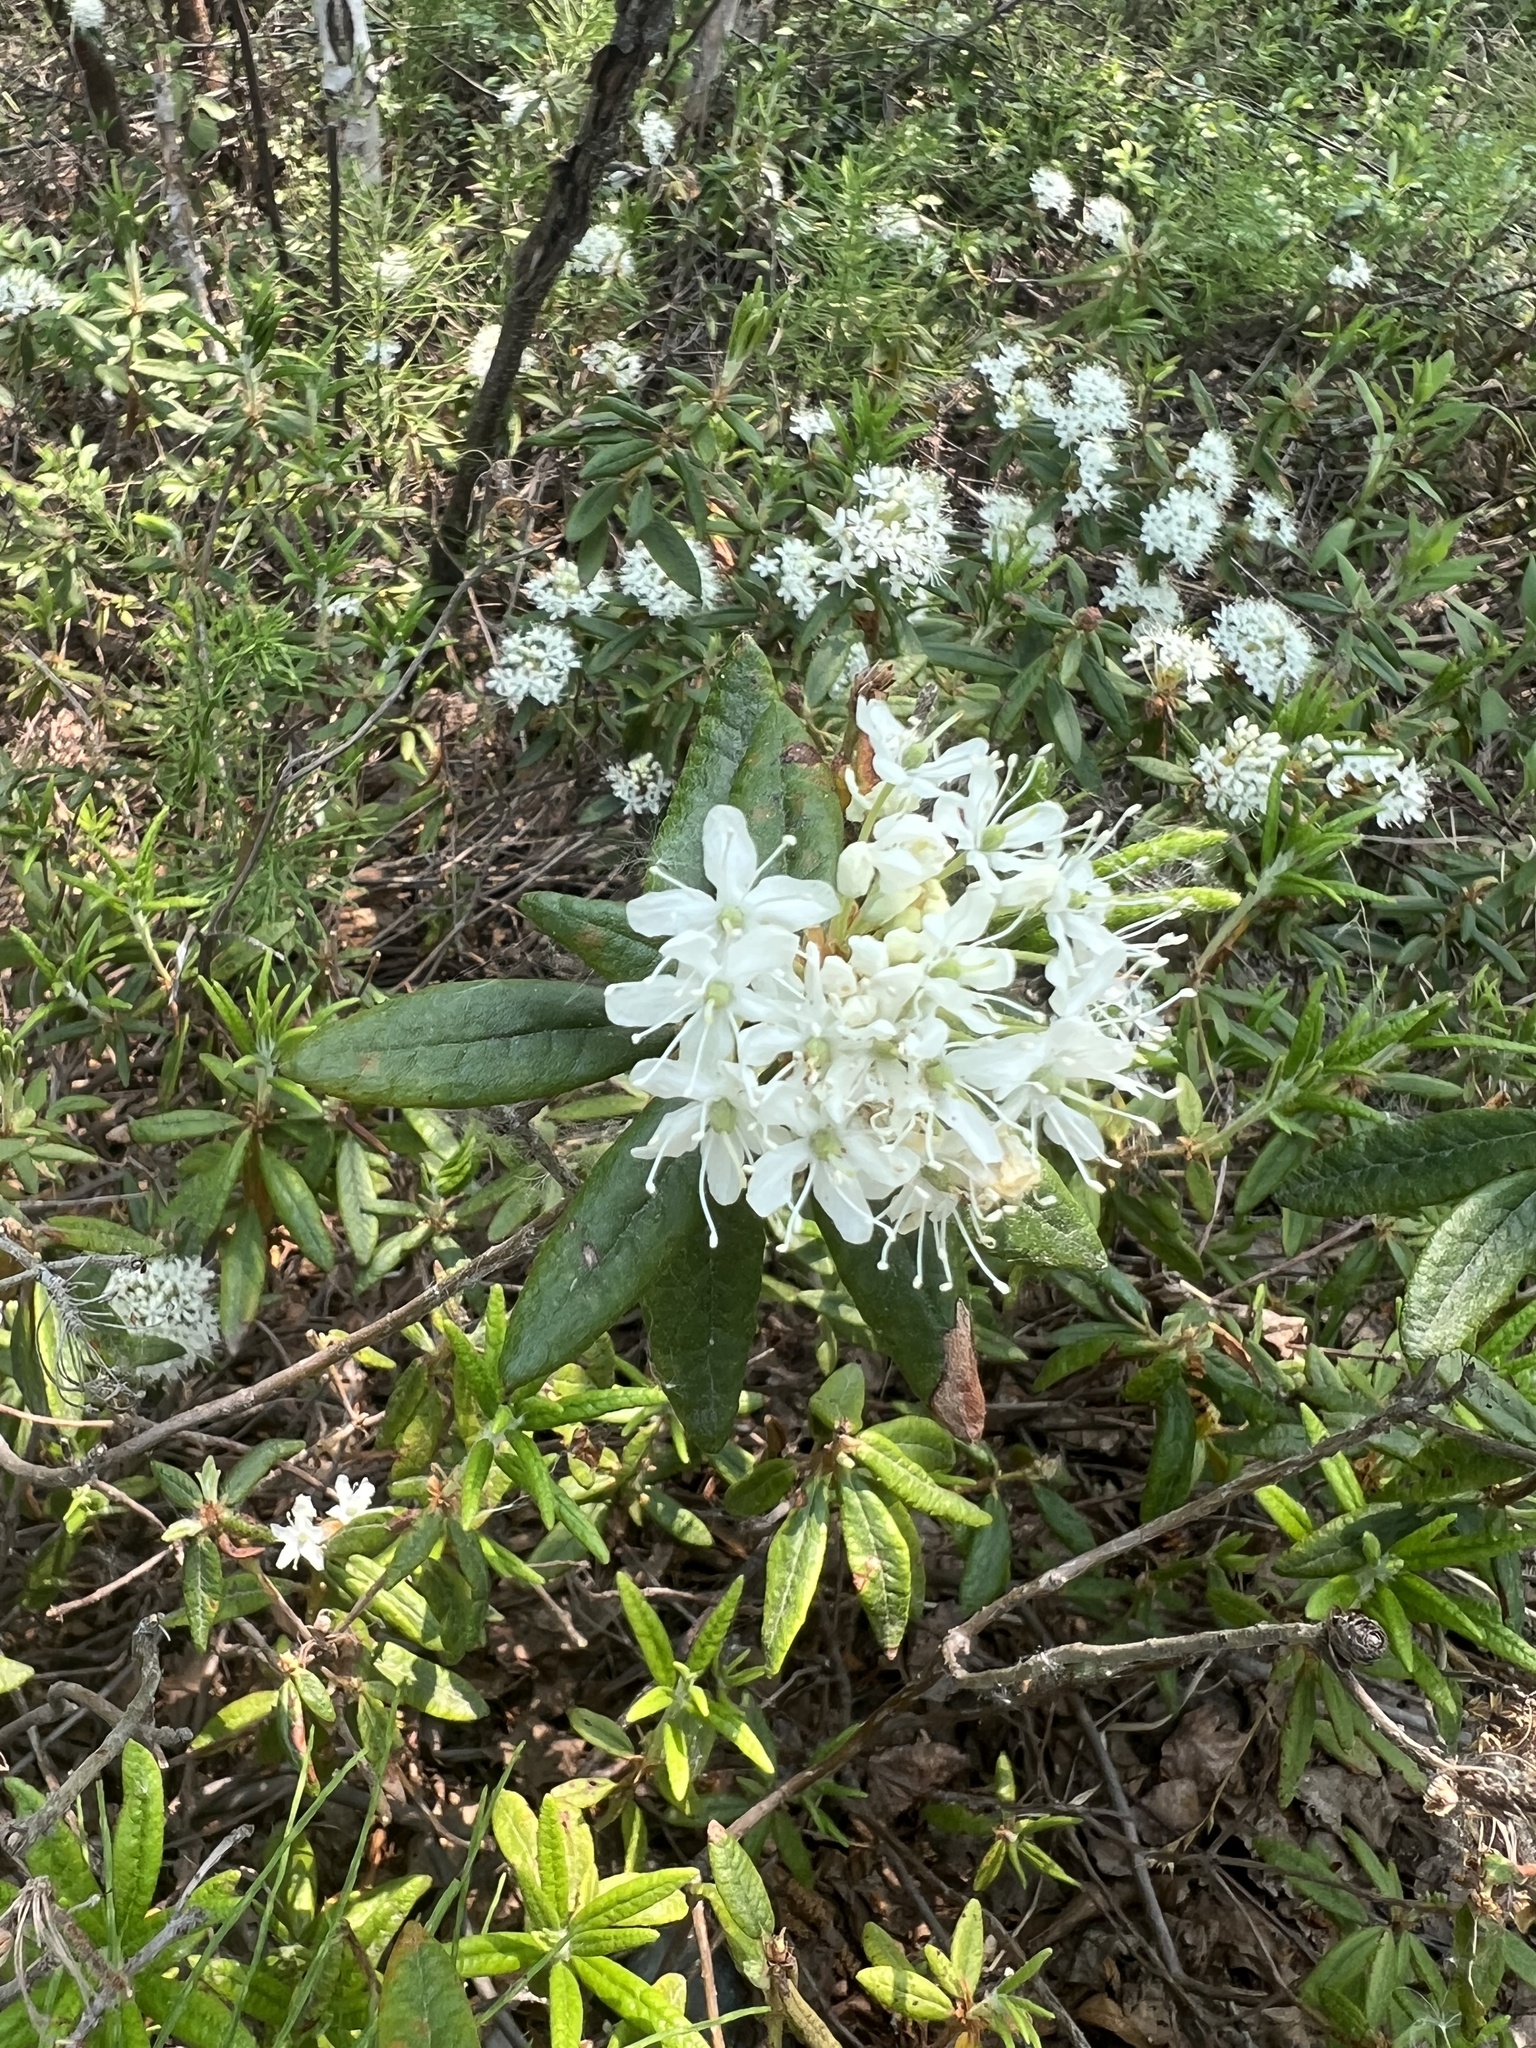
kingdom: Plantae
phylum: Tracheophyta
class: Magnoliopsida
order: Ericales
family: Ericaceae
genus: Rhododendron
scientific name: Rhododendron groenlandicum
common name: Bog labrador tea
